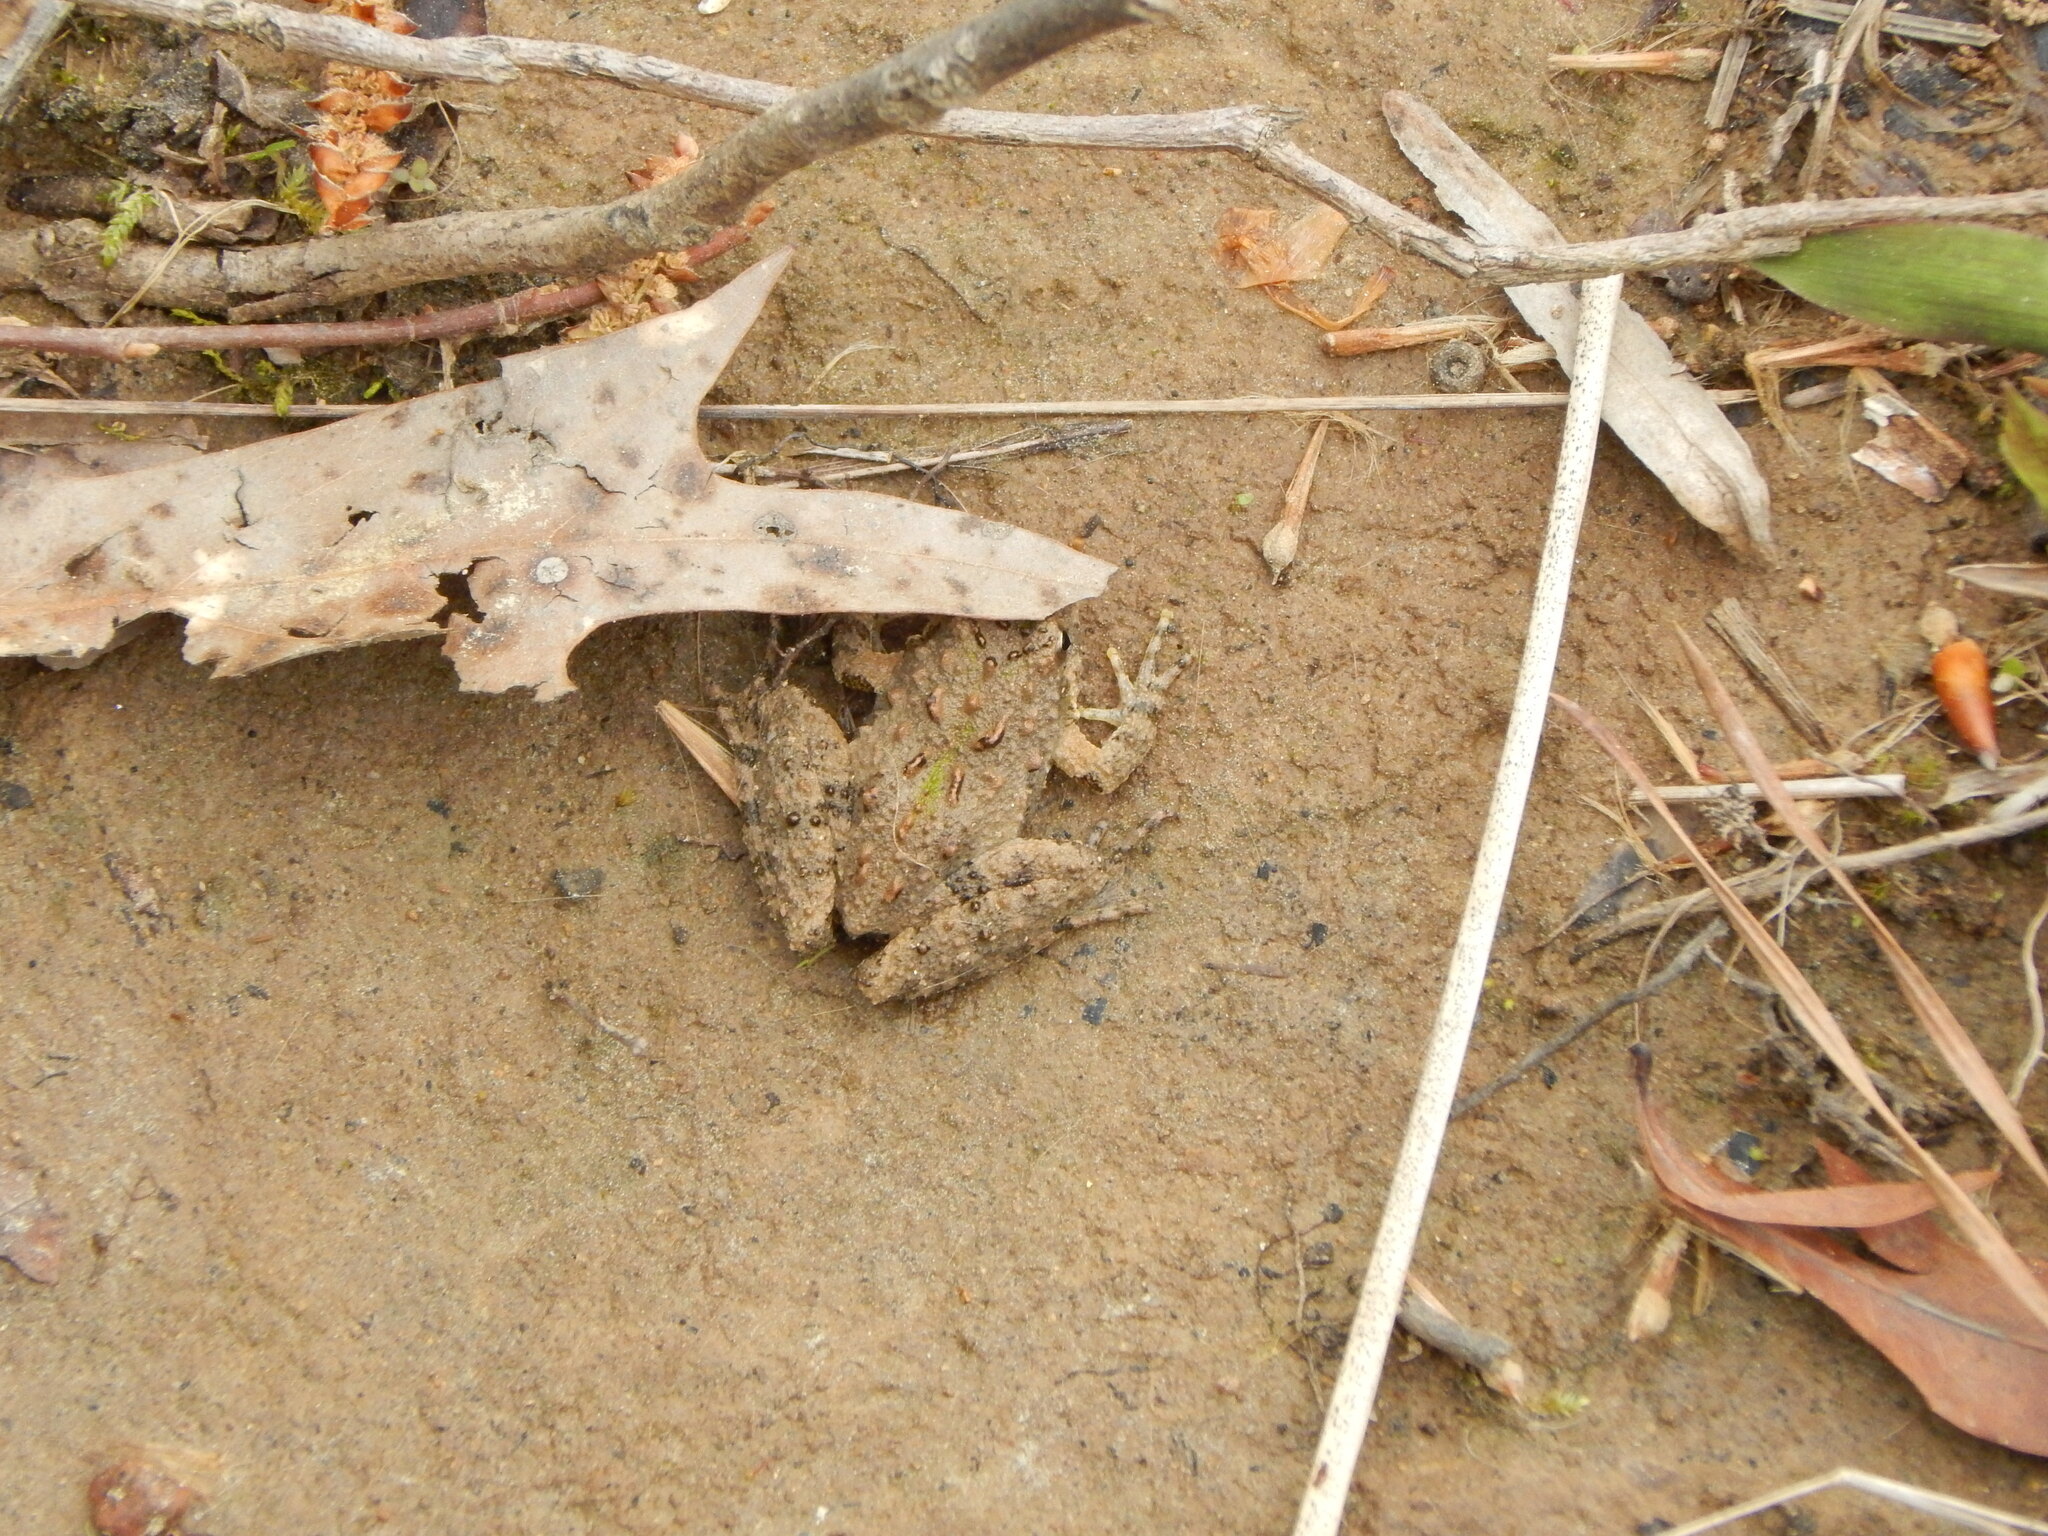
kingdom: Animalia
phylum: Chordata
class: Amphibia
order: Anura
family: Hylidae
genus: Acris
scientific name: Acris crepitans
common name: Northern cricket frog
